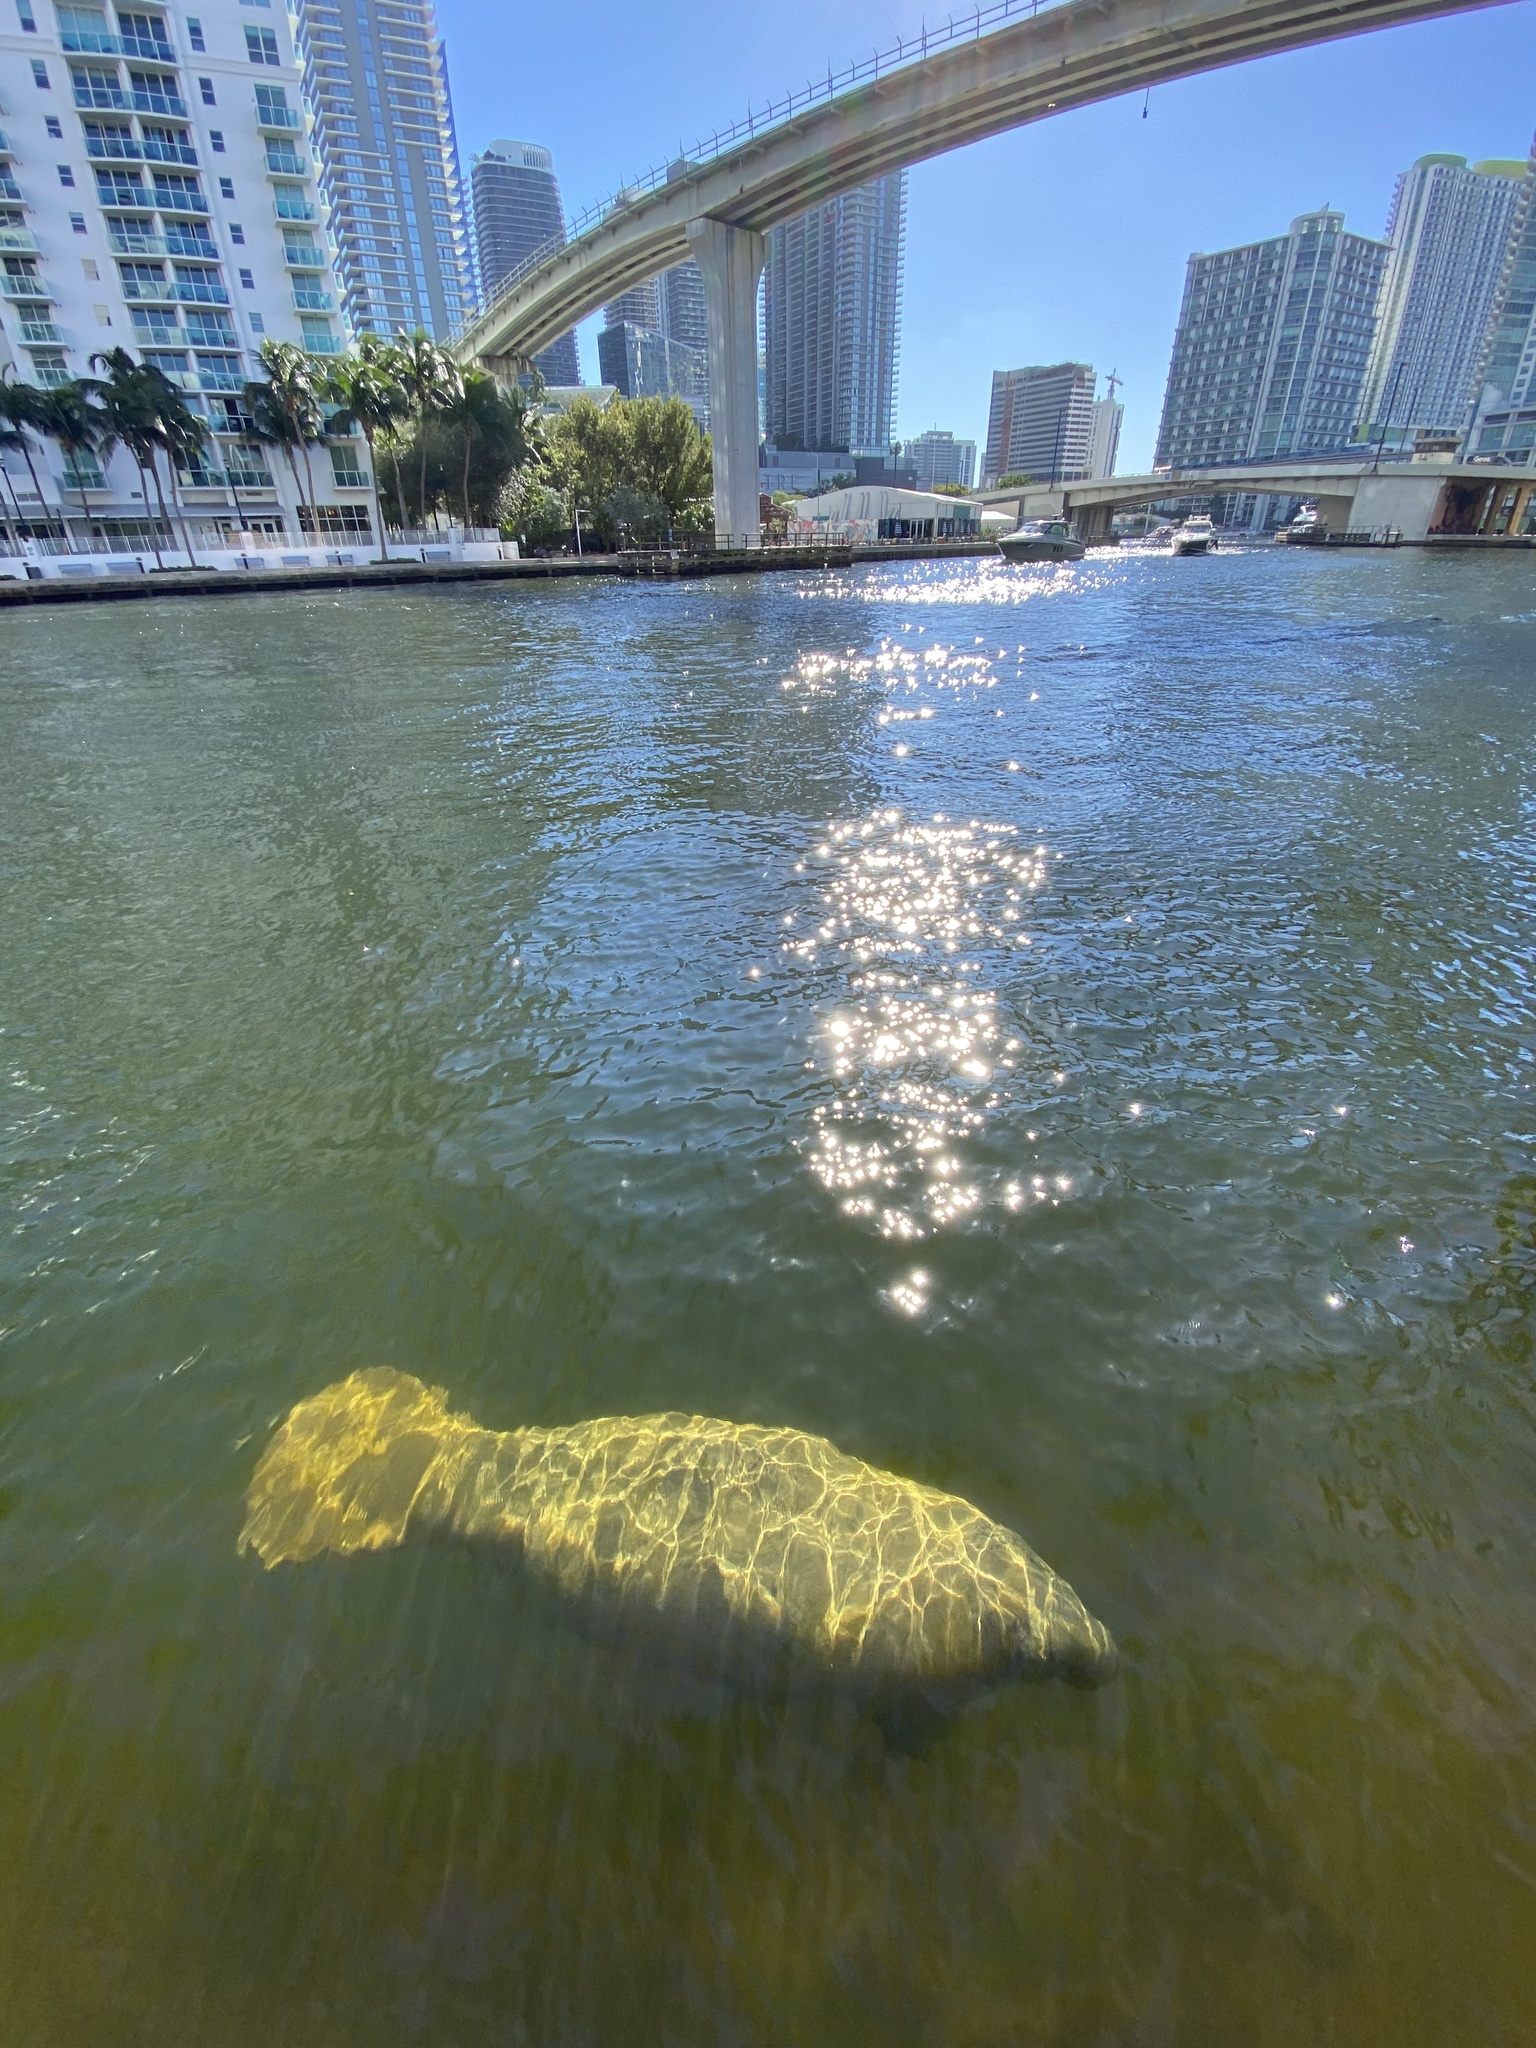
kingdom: Animalia
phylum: Chordata
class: Mammalia
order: Sirenia
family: Trichechidae
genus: Trichechus
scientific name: Trichechus manatus
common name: West indian manatee
